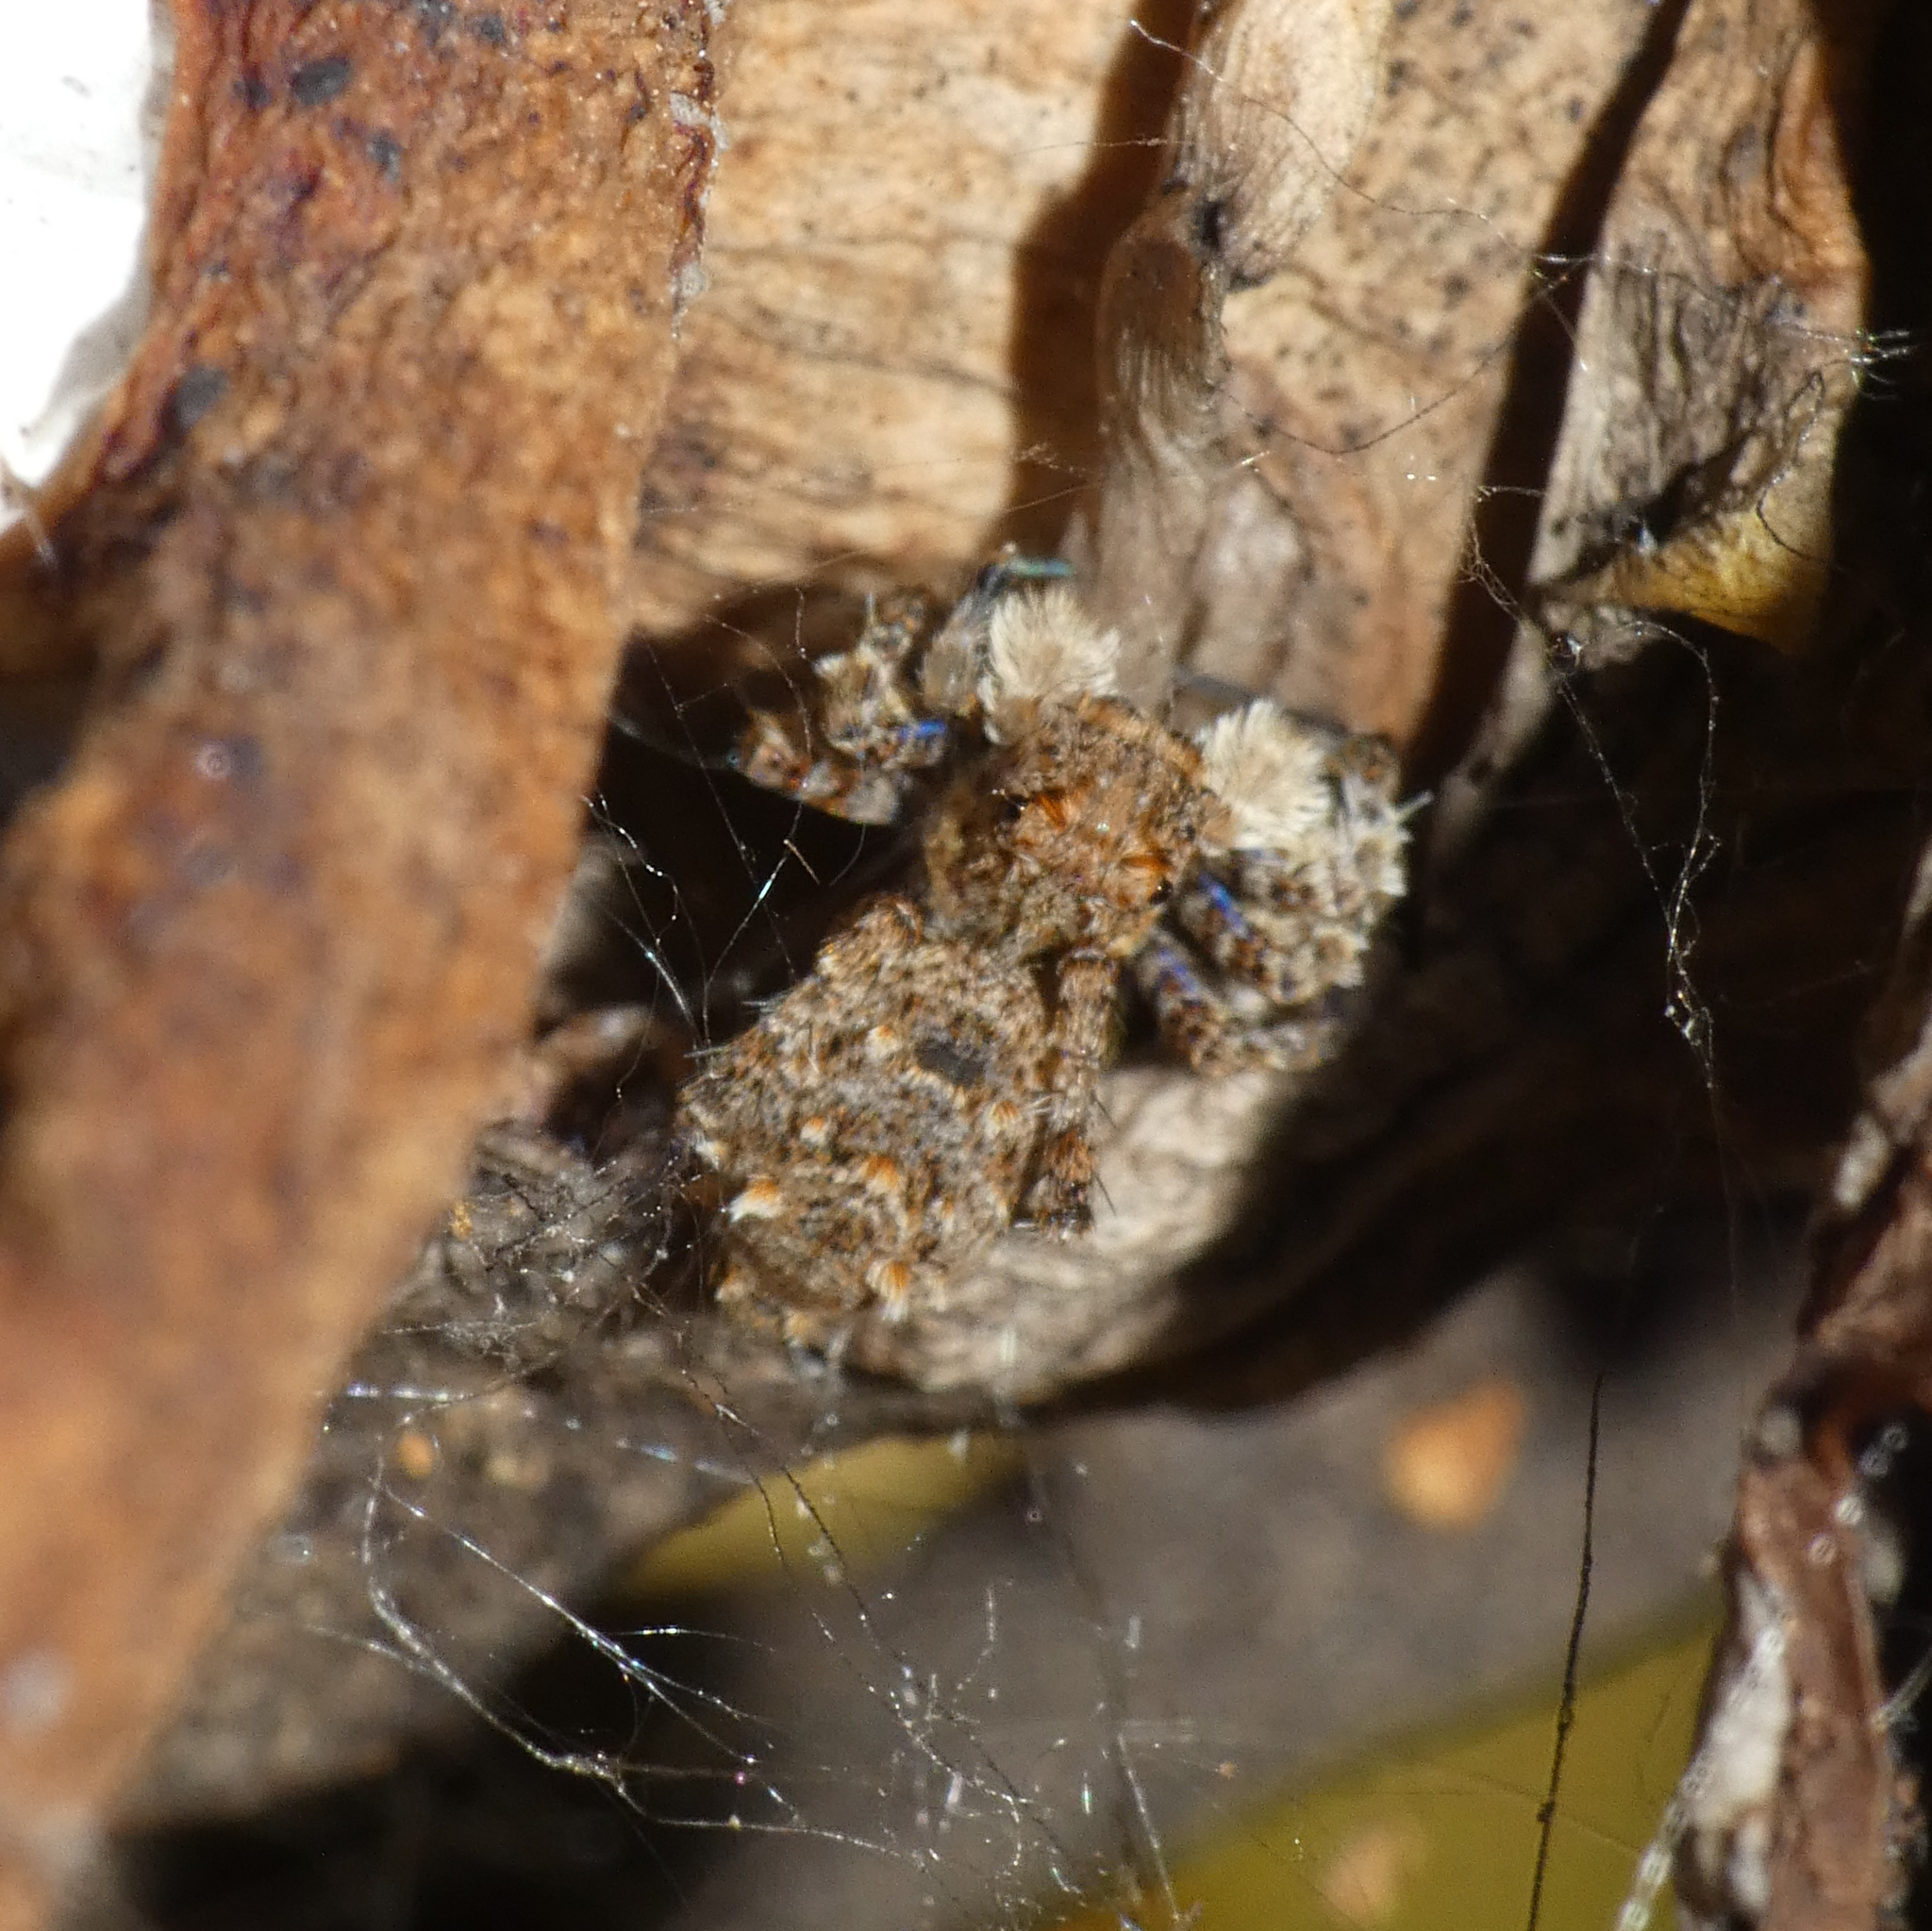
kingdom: Animalia
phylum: Arthropoda
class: Arachnida
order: Araneae
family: Salticidae
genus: Portia
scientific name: Portia schultzi
